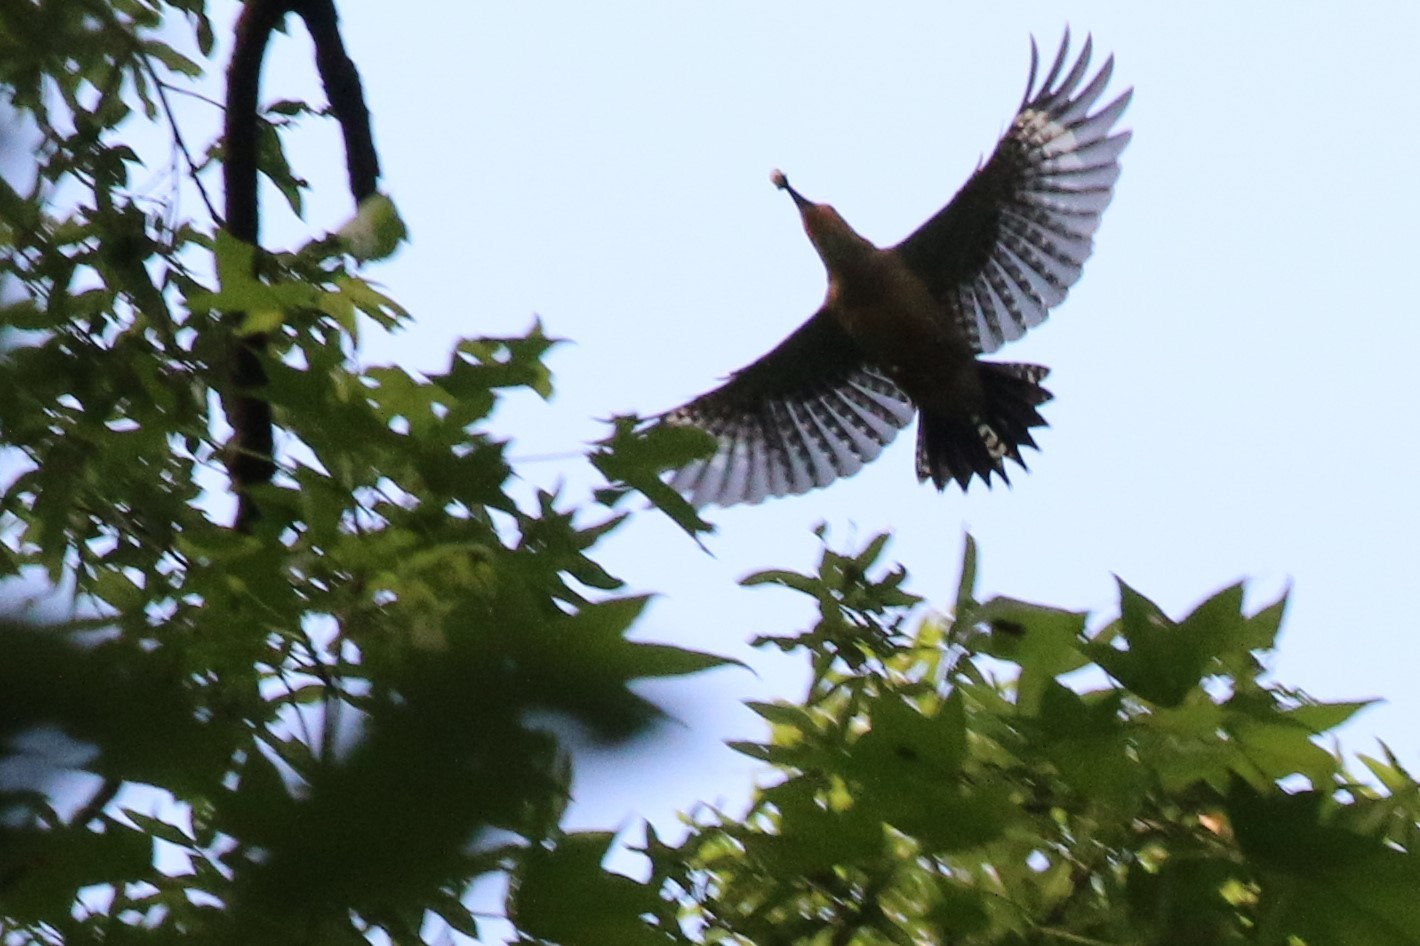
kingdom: Animalia
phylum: Chordata
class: Aves
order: Piciformes
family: Picidae
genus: Melanerpes
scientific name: Melanerpes carolinus
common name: Red-bellied woodpecker
